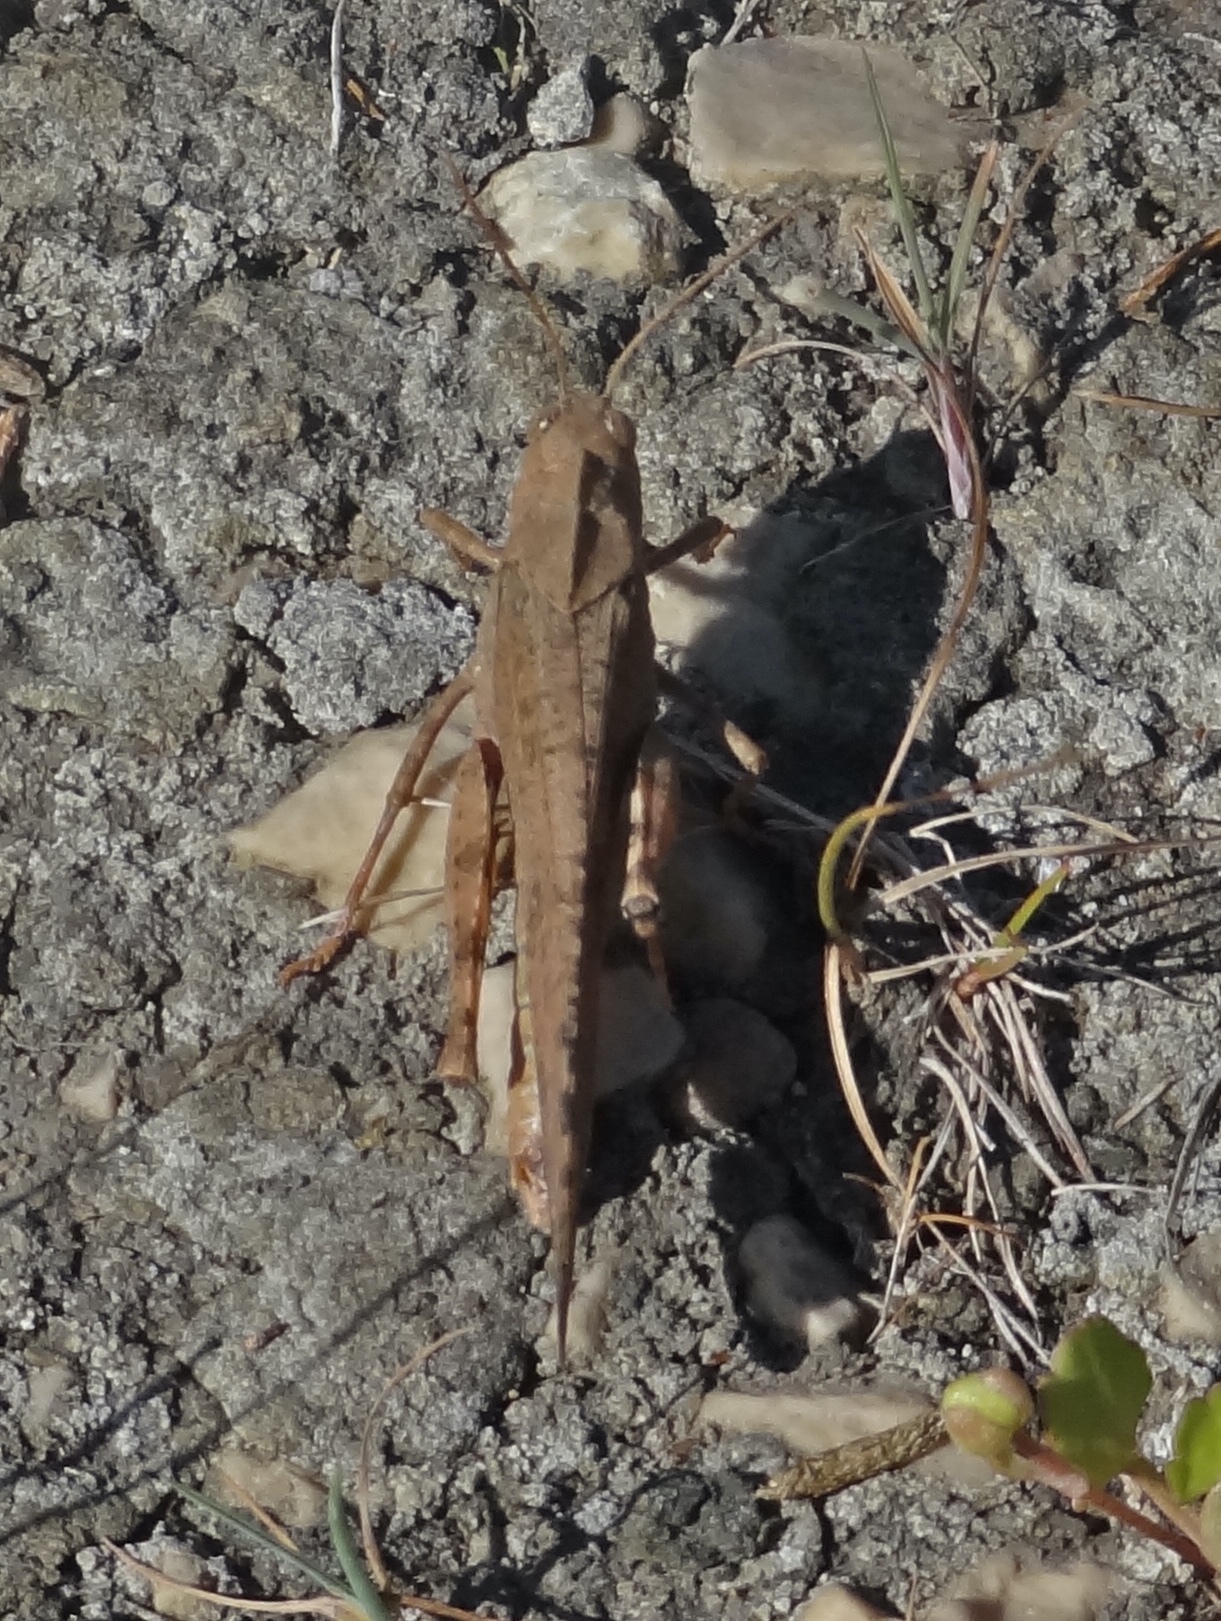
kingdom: Animalia
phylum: Arthropoda
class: Insecta
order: Orthoptera
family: Acrididae
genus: Dissosteira
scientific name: Dissosteira carolina
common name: Carolina grasshopper
